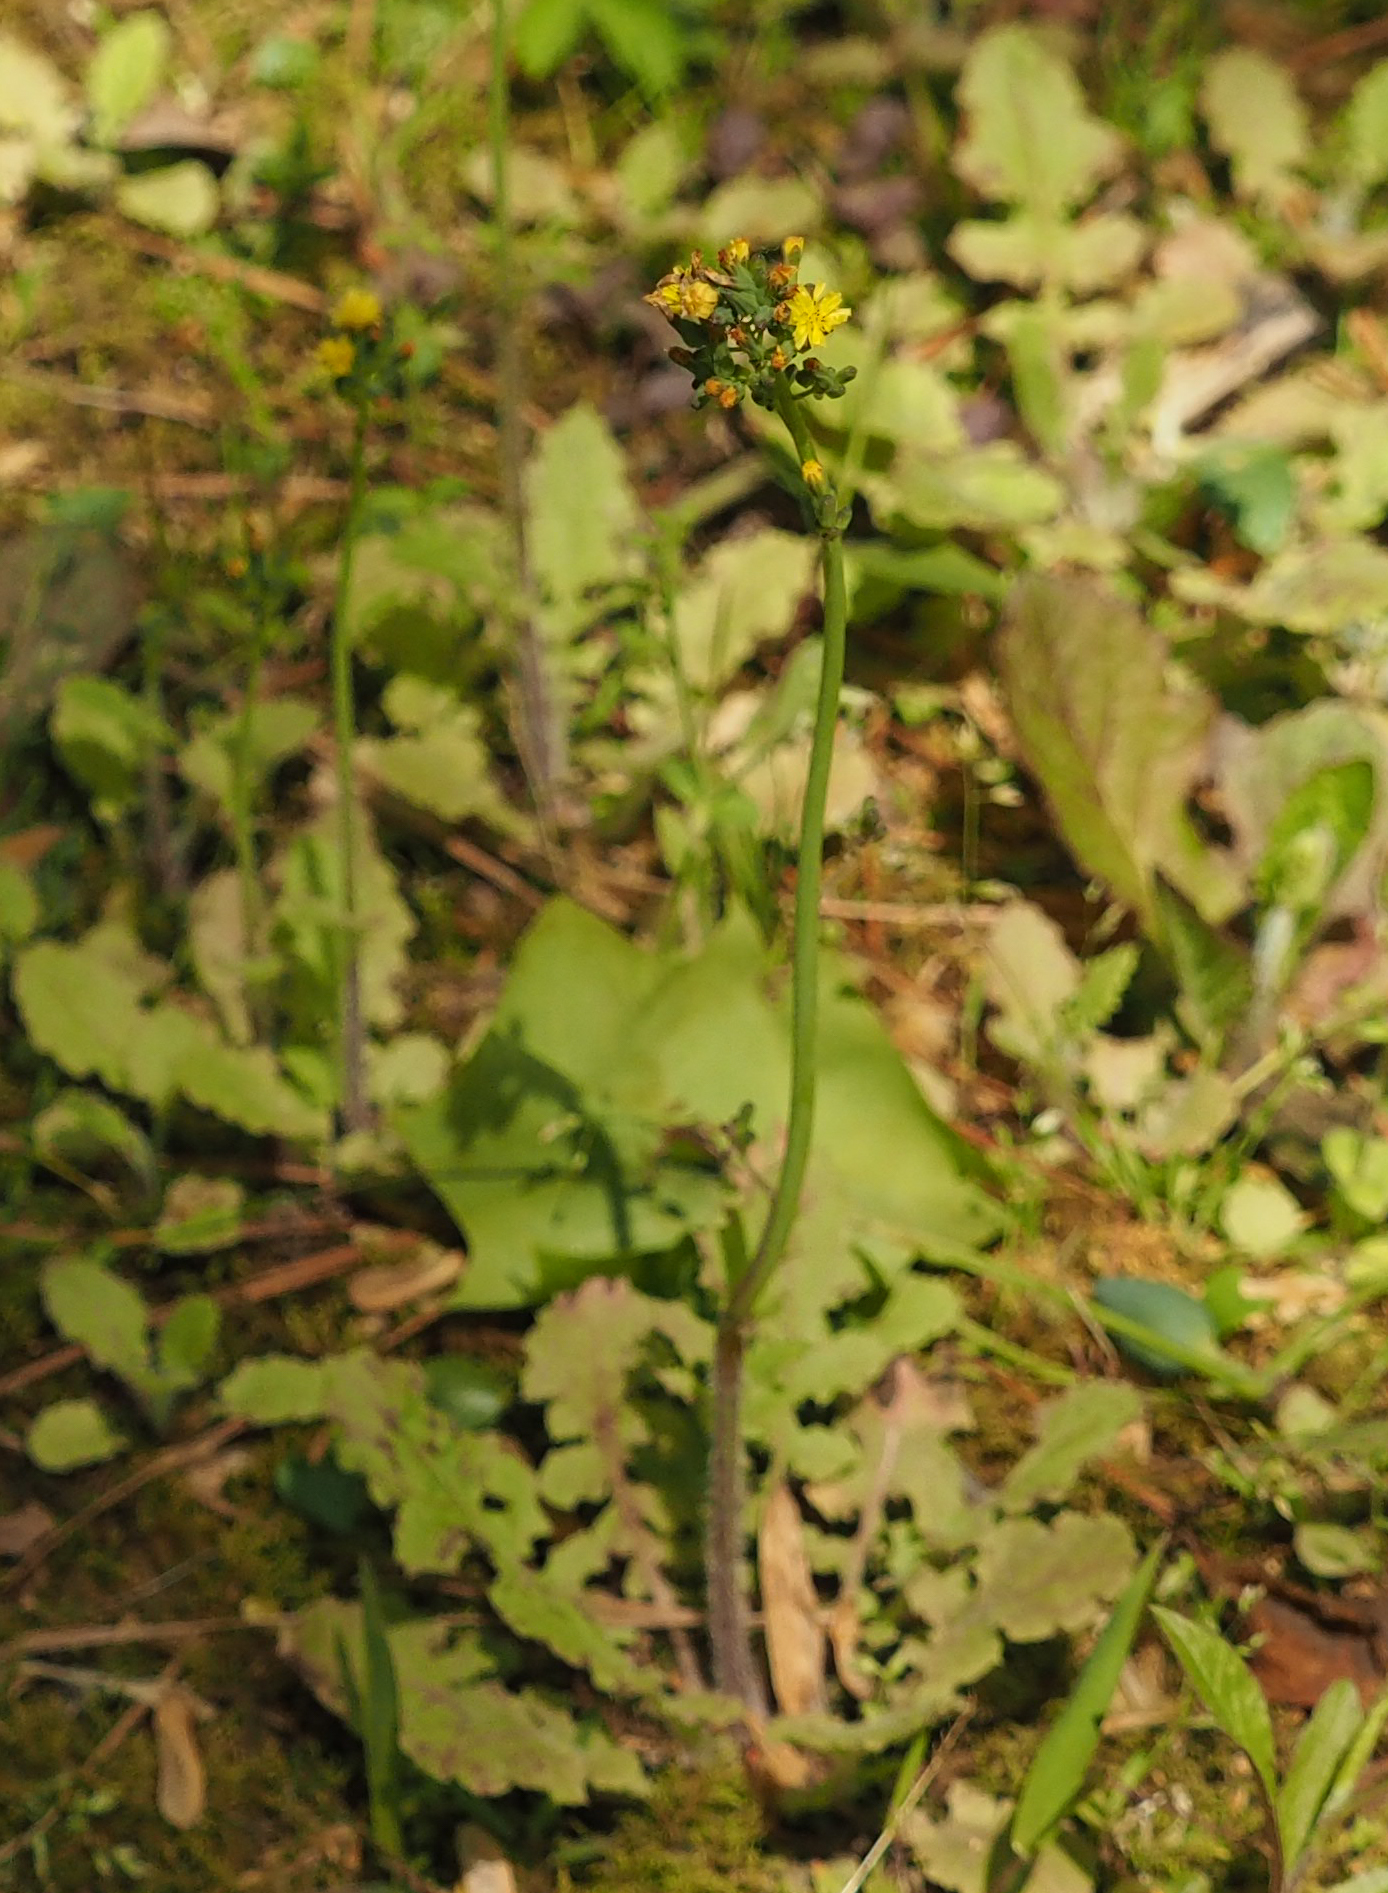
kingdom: Plantae
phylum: Tracheophyta
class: Magnoliopsida
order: Asterales
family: Asteraceae
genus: Youngia
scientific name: Youngia japonica
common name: Oriental false hawksbeard
